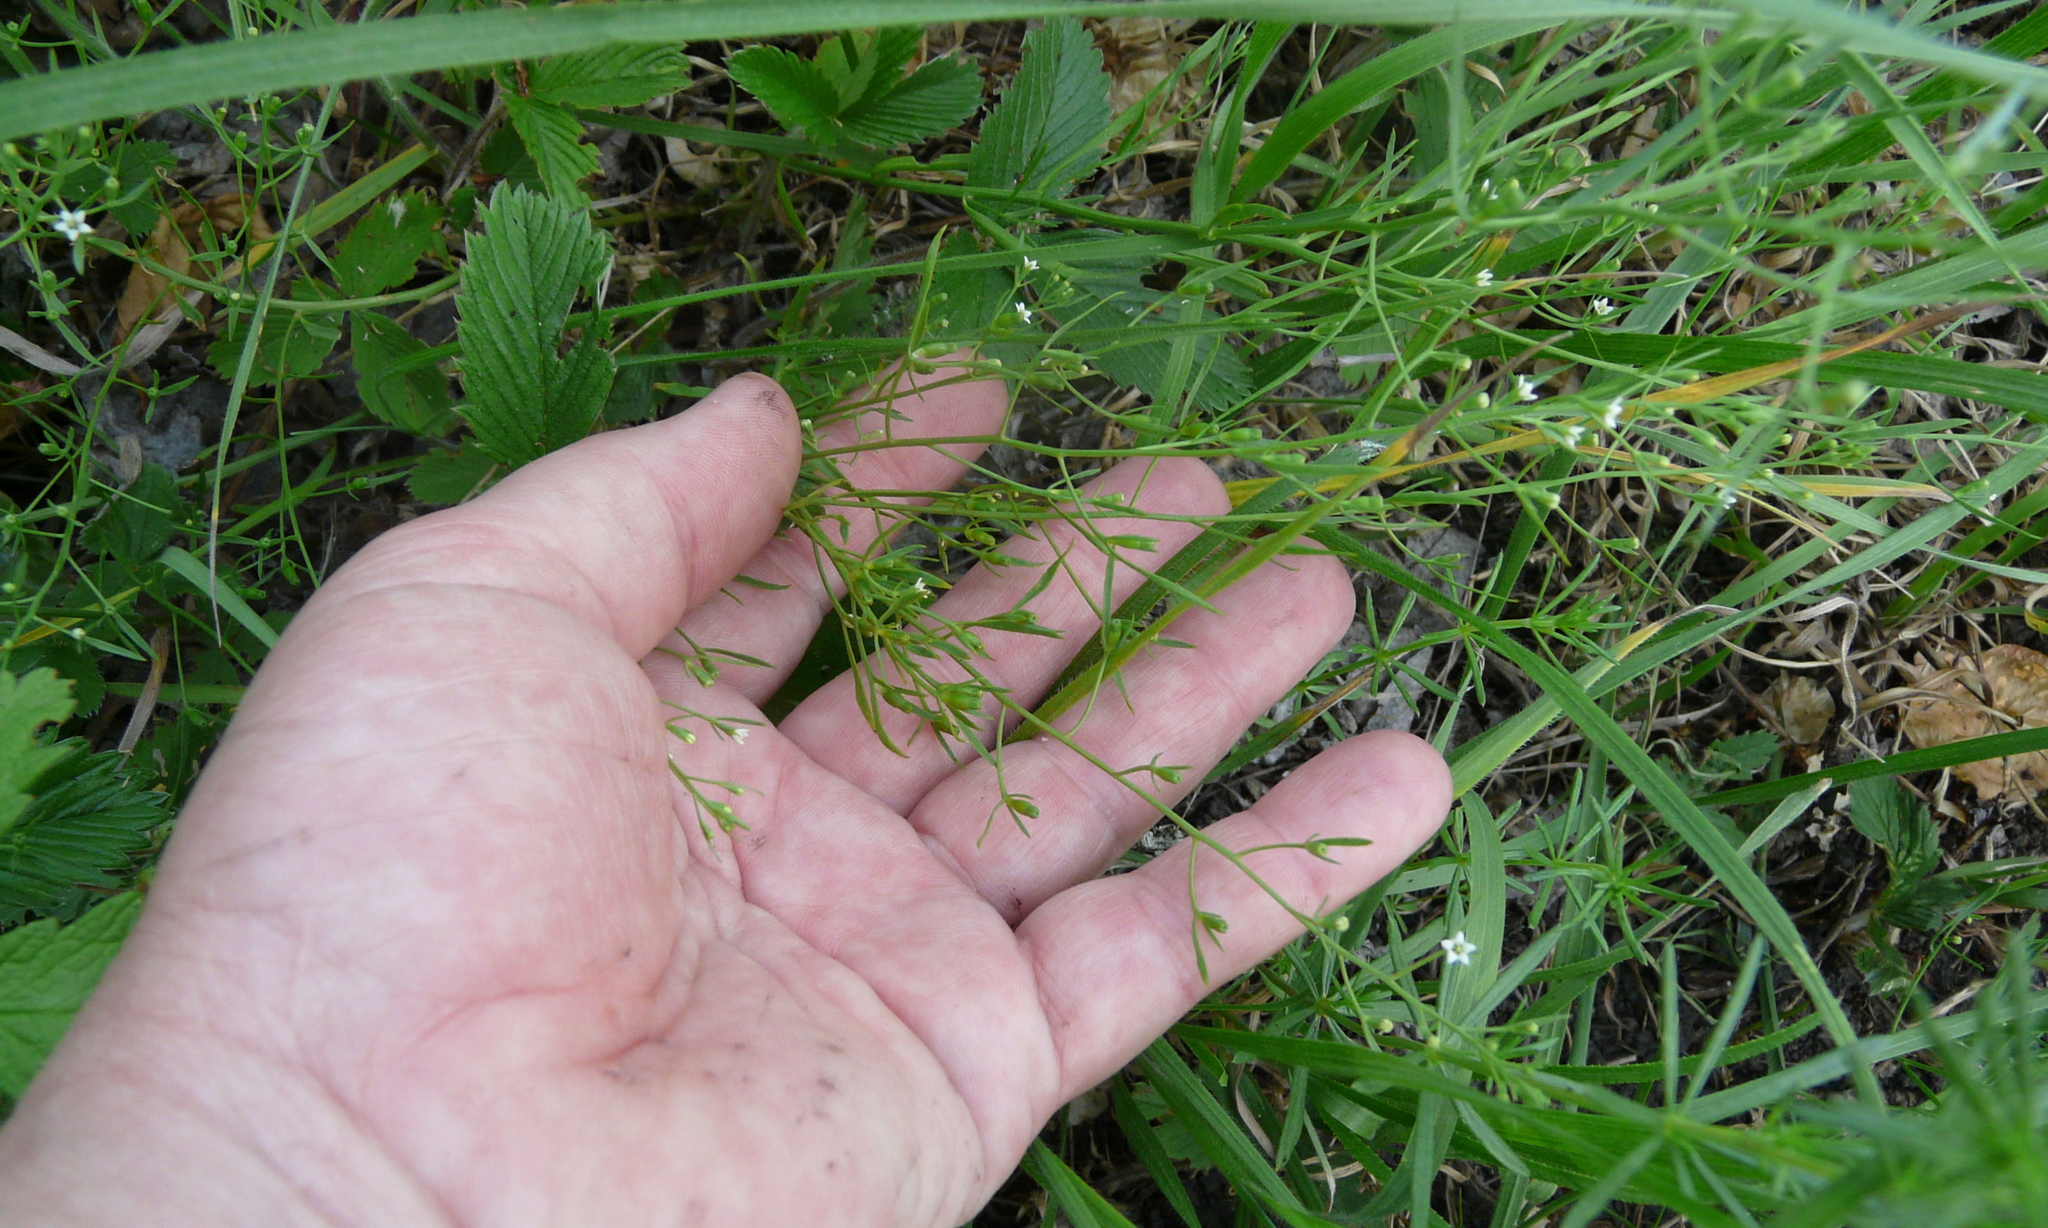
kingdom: Plantae
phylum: Tracheophyta
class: Magnoliopsida
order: Santalales
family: Thesiaceae
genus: Thesium
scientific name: Thesium ramosum
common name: Field thesium
